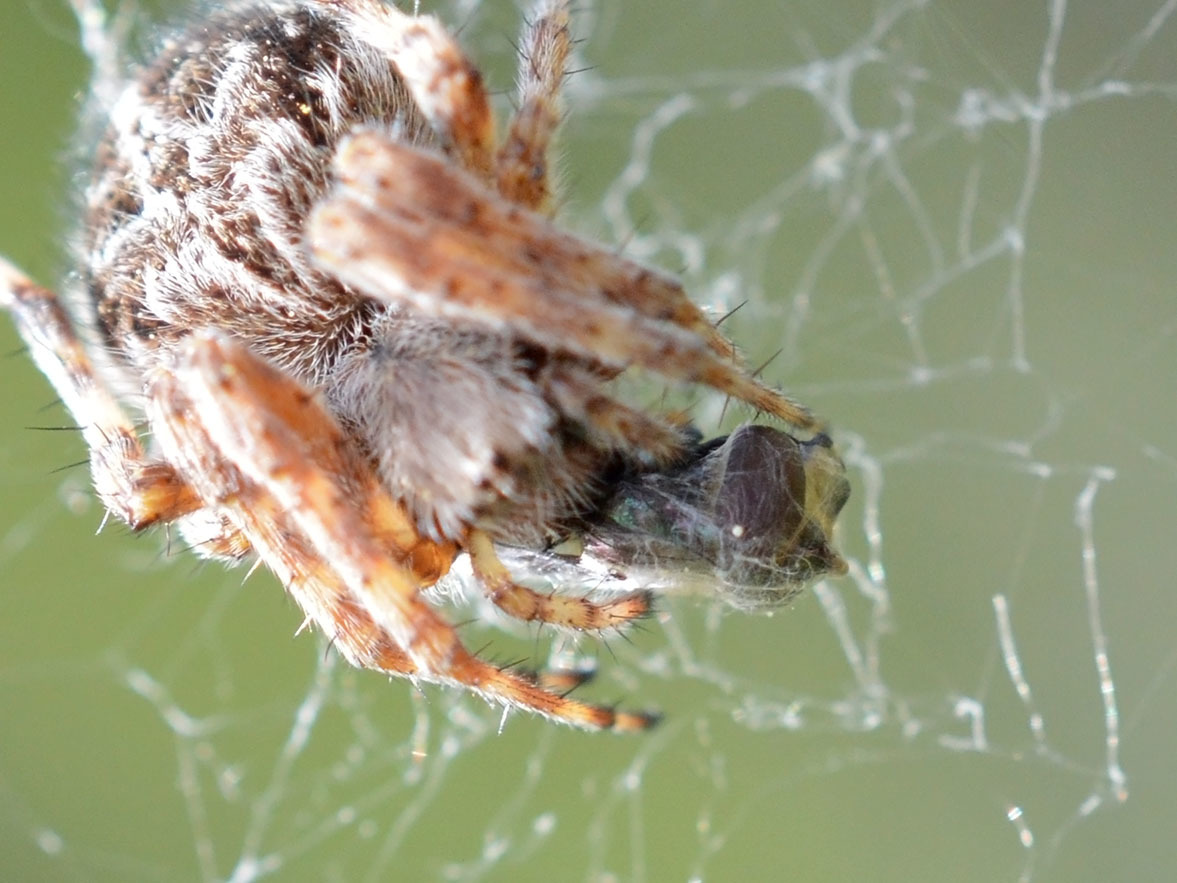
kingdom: Animalia
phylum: Arthropoda
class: Arachnida
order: Araneae
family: Araneidae
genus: Agalenatea
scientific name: Agalenatea redii
